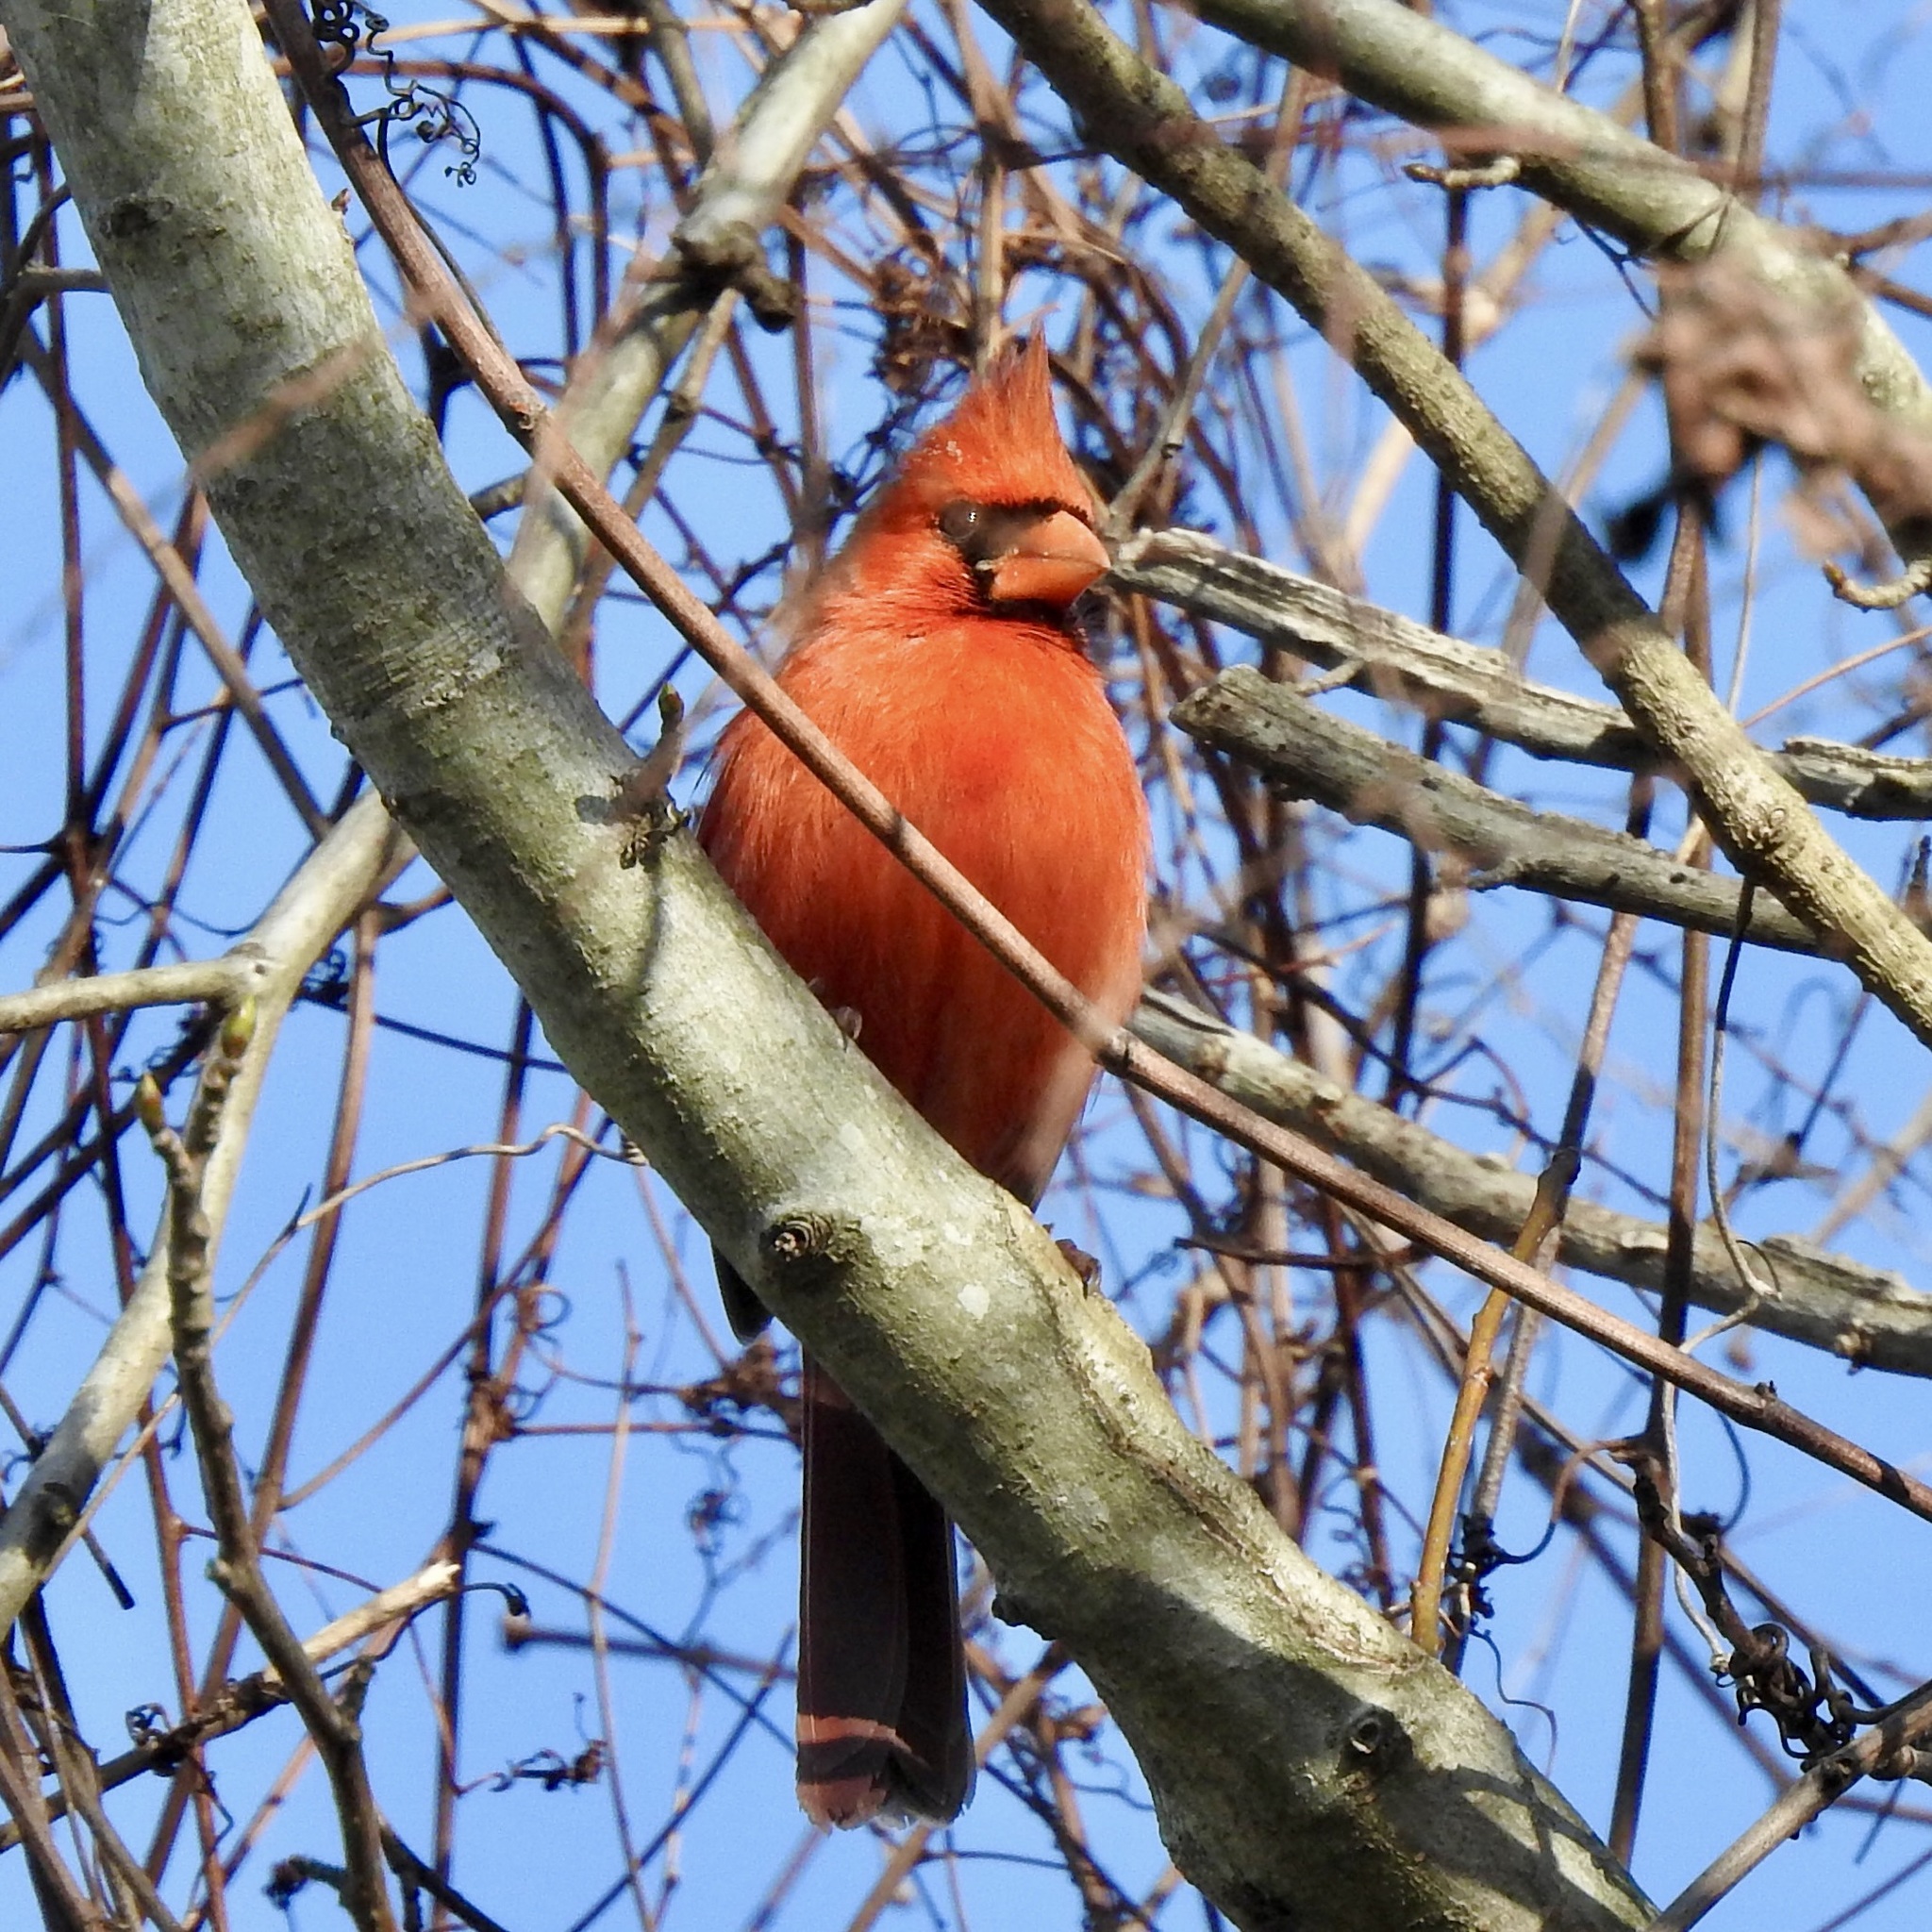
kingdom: Animalia
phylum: Chordata
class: Aves
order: Passeriformes
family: Cardinalidae
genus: Cardinalis
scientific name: Cardinalis cardinalis
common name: Northern cardinal
